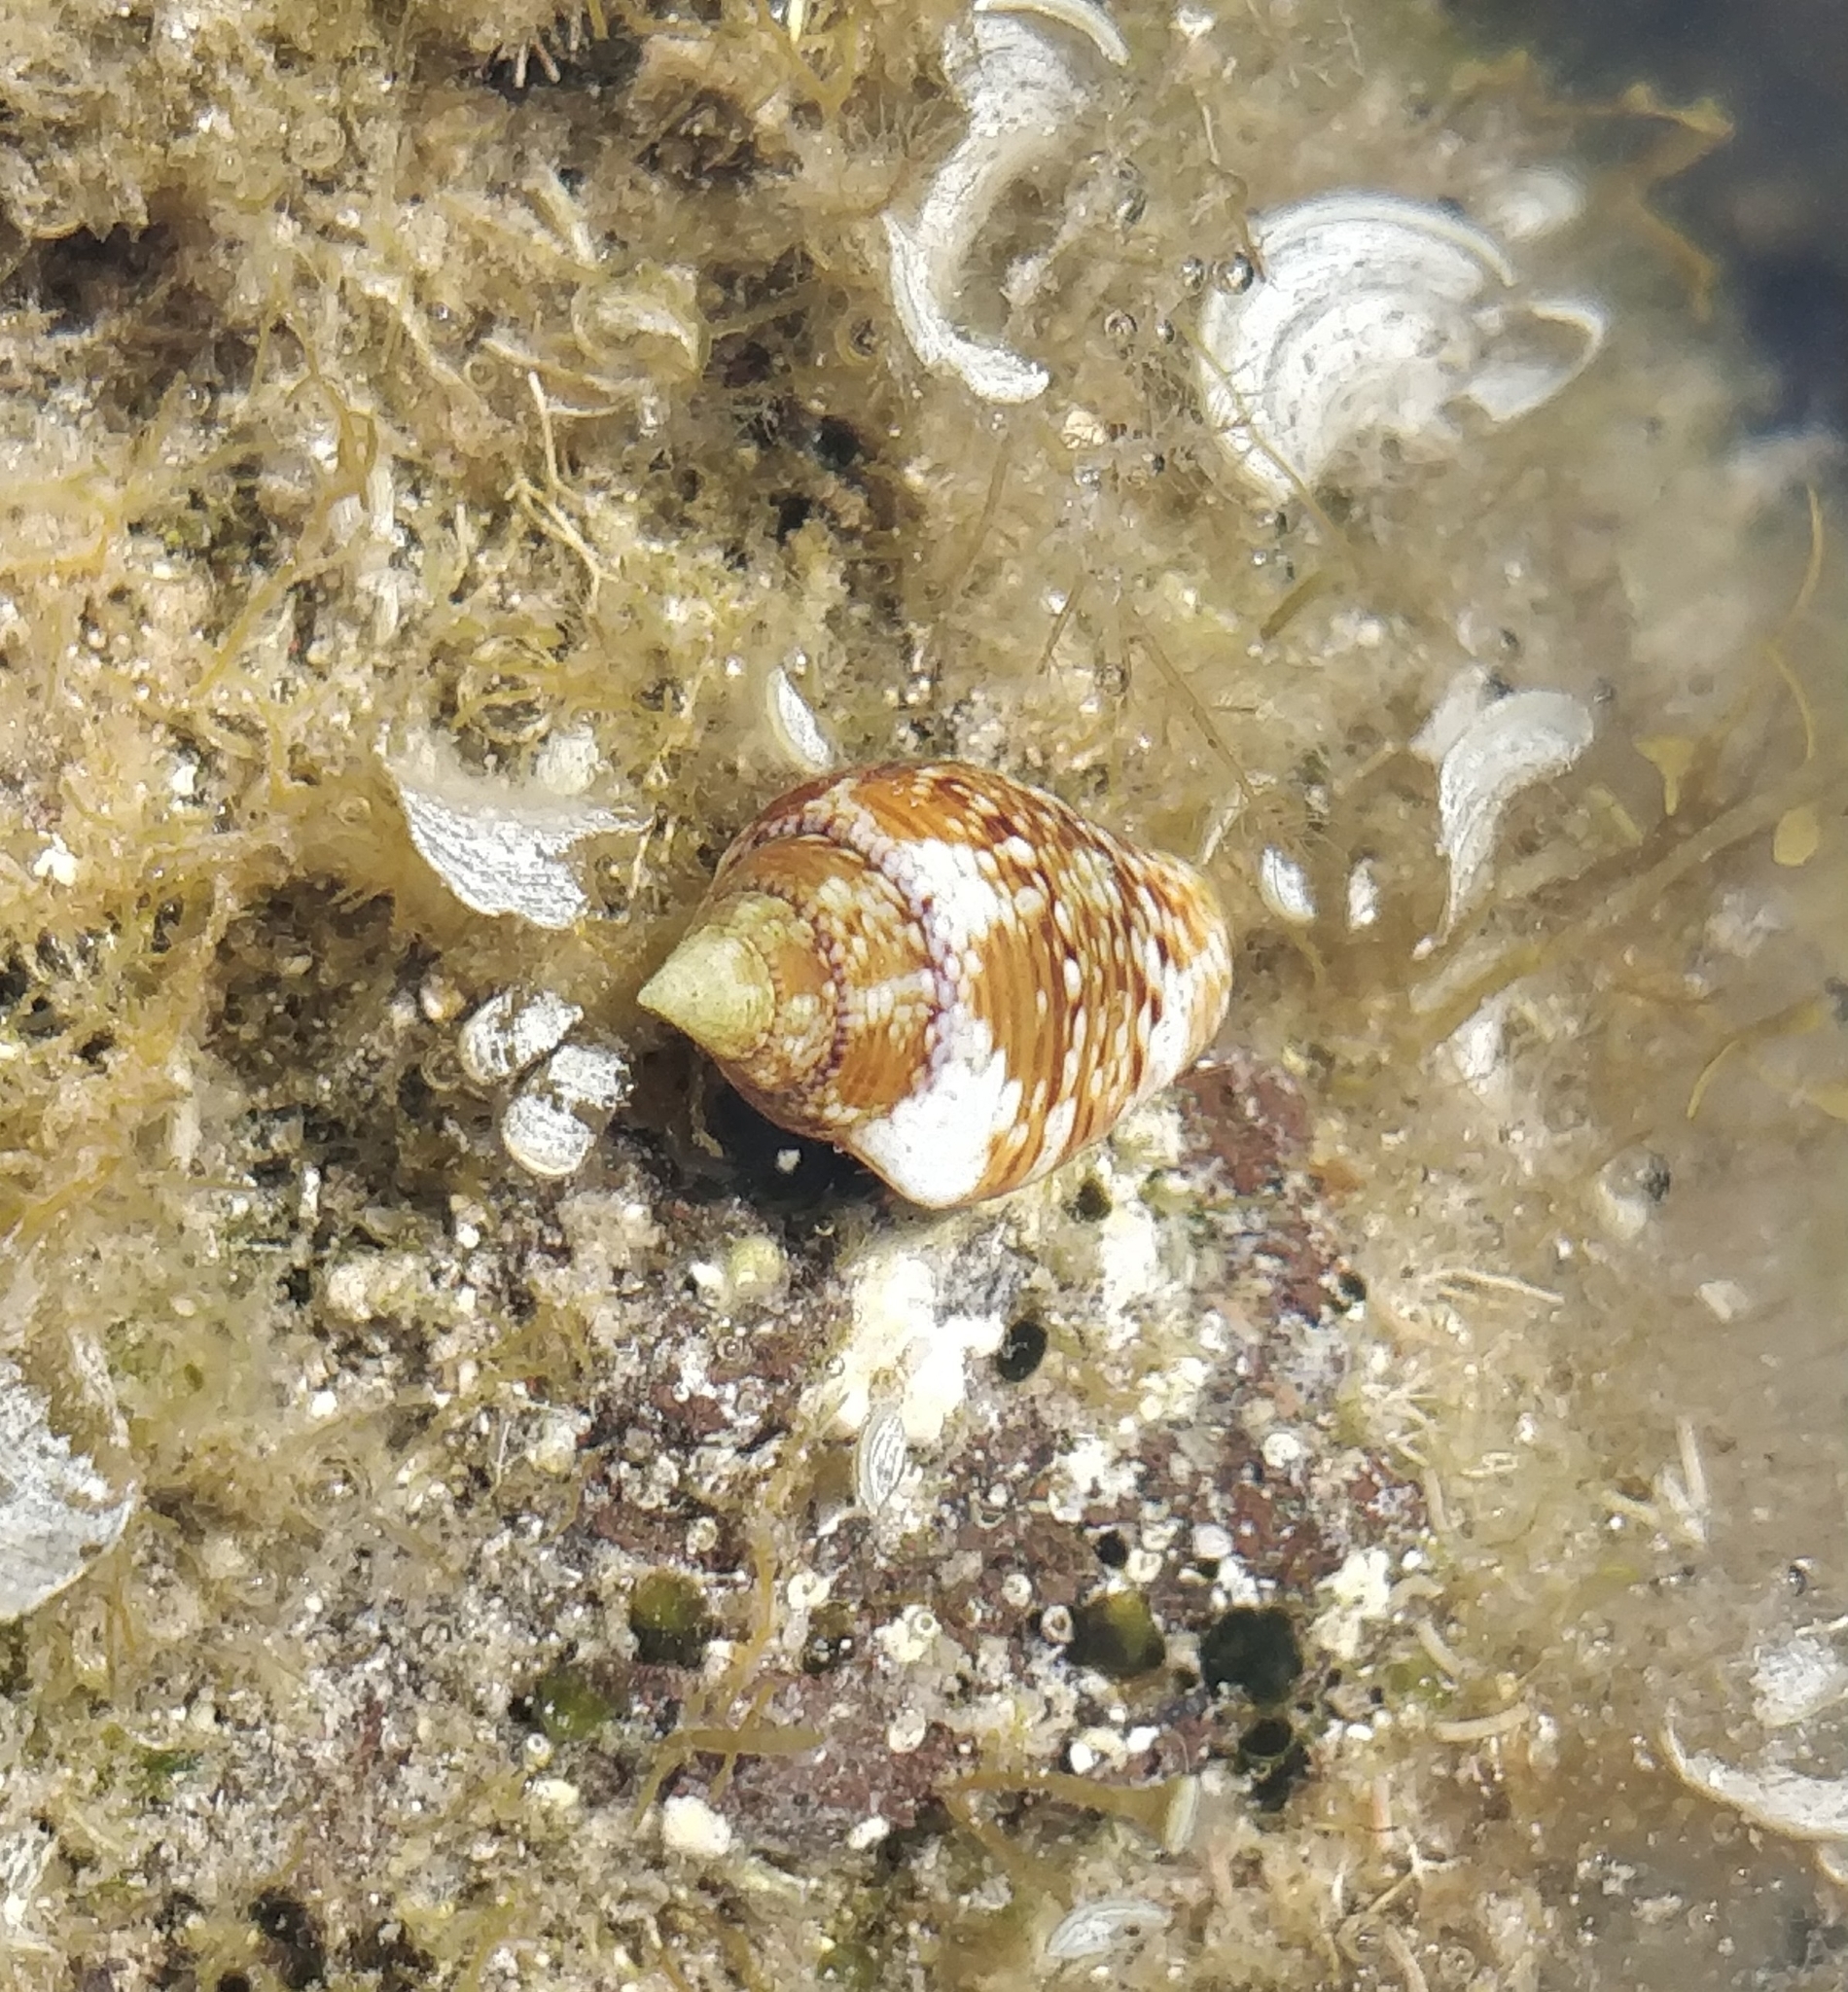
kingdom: Animalia
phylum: Mollusca
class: Gastropoda
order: Neogastropoda
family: Columbellidae
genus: Columbella
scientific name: Columbella adansoni
